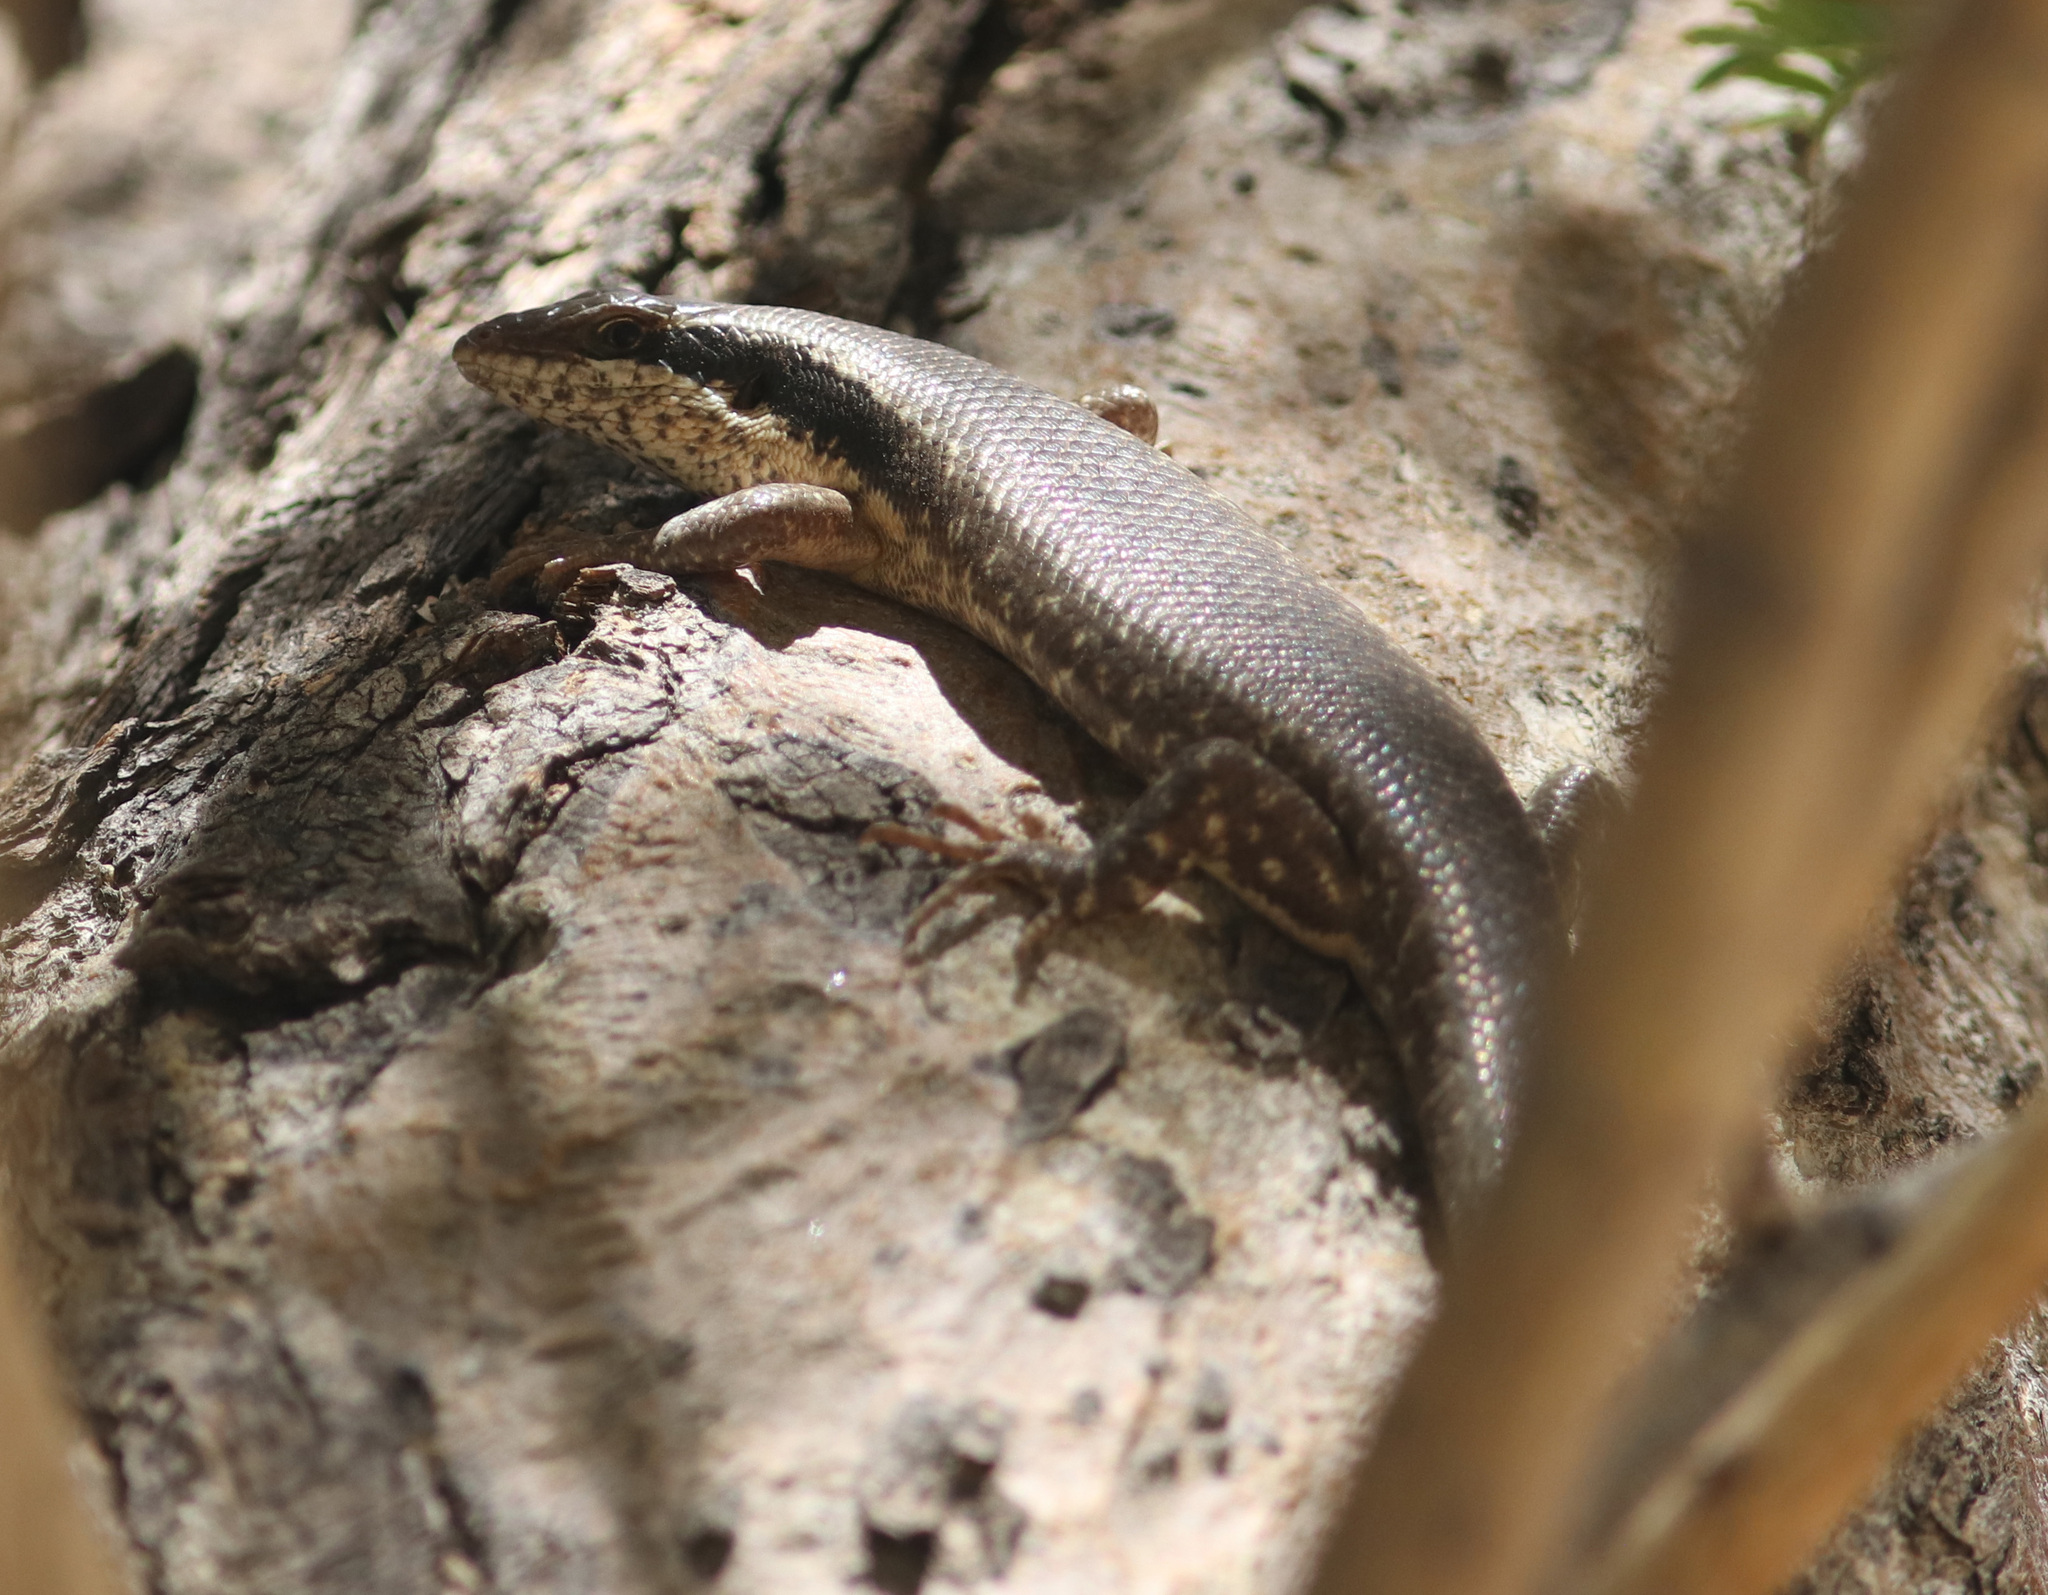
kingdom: Animalia
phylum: Chordata
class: Squamata
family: Scincidae
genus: Trachylepis
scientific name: Trachylepis binotata
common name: Bocage's mabuya
